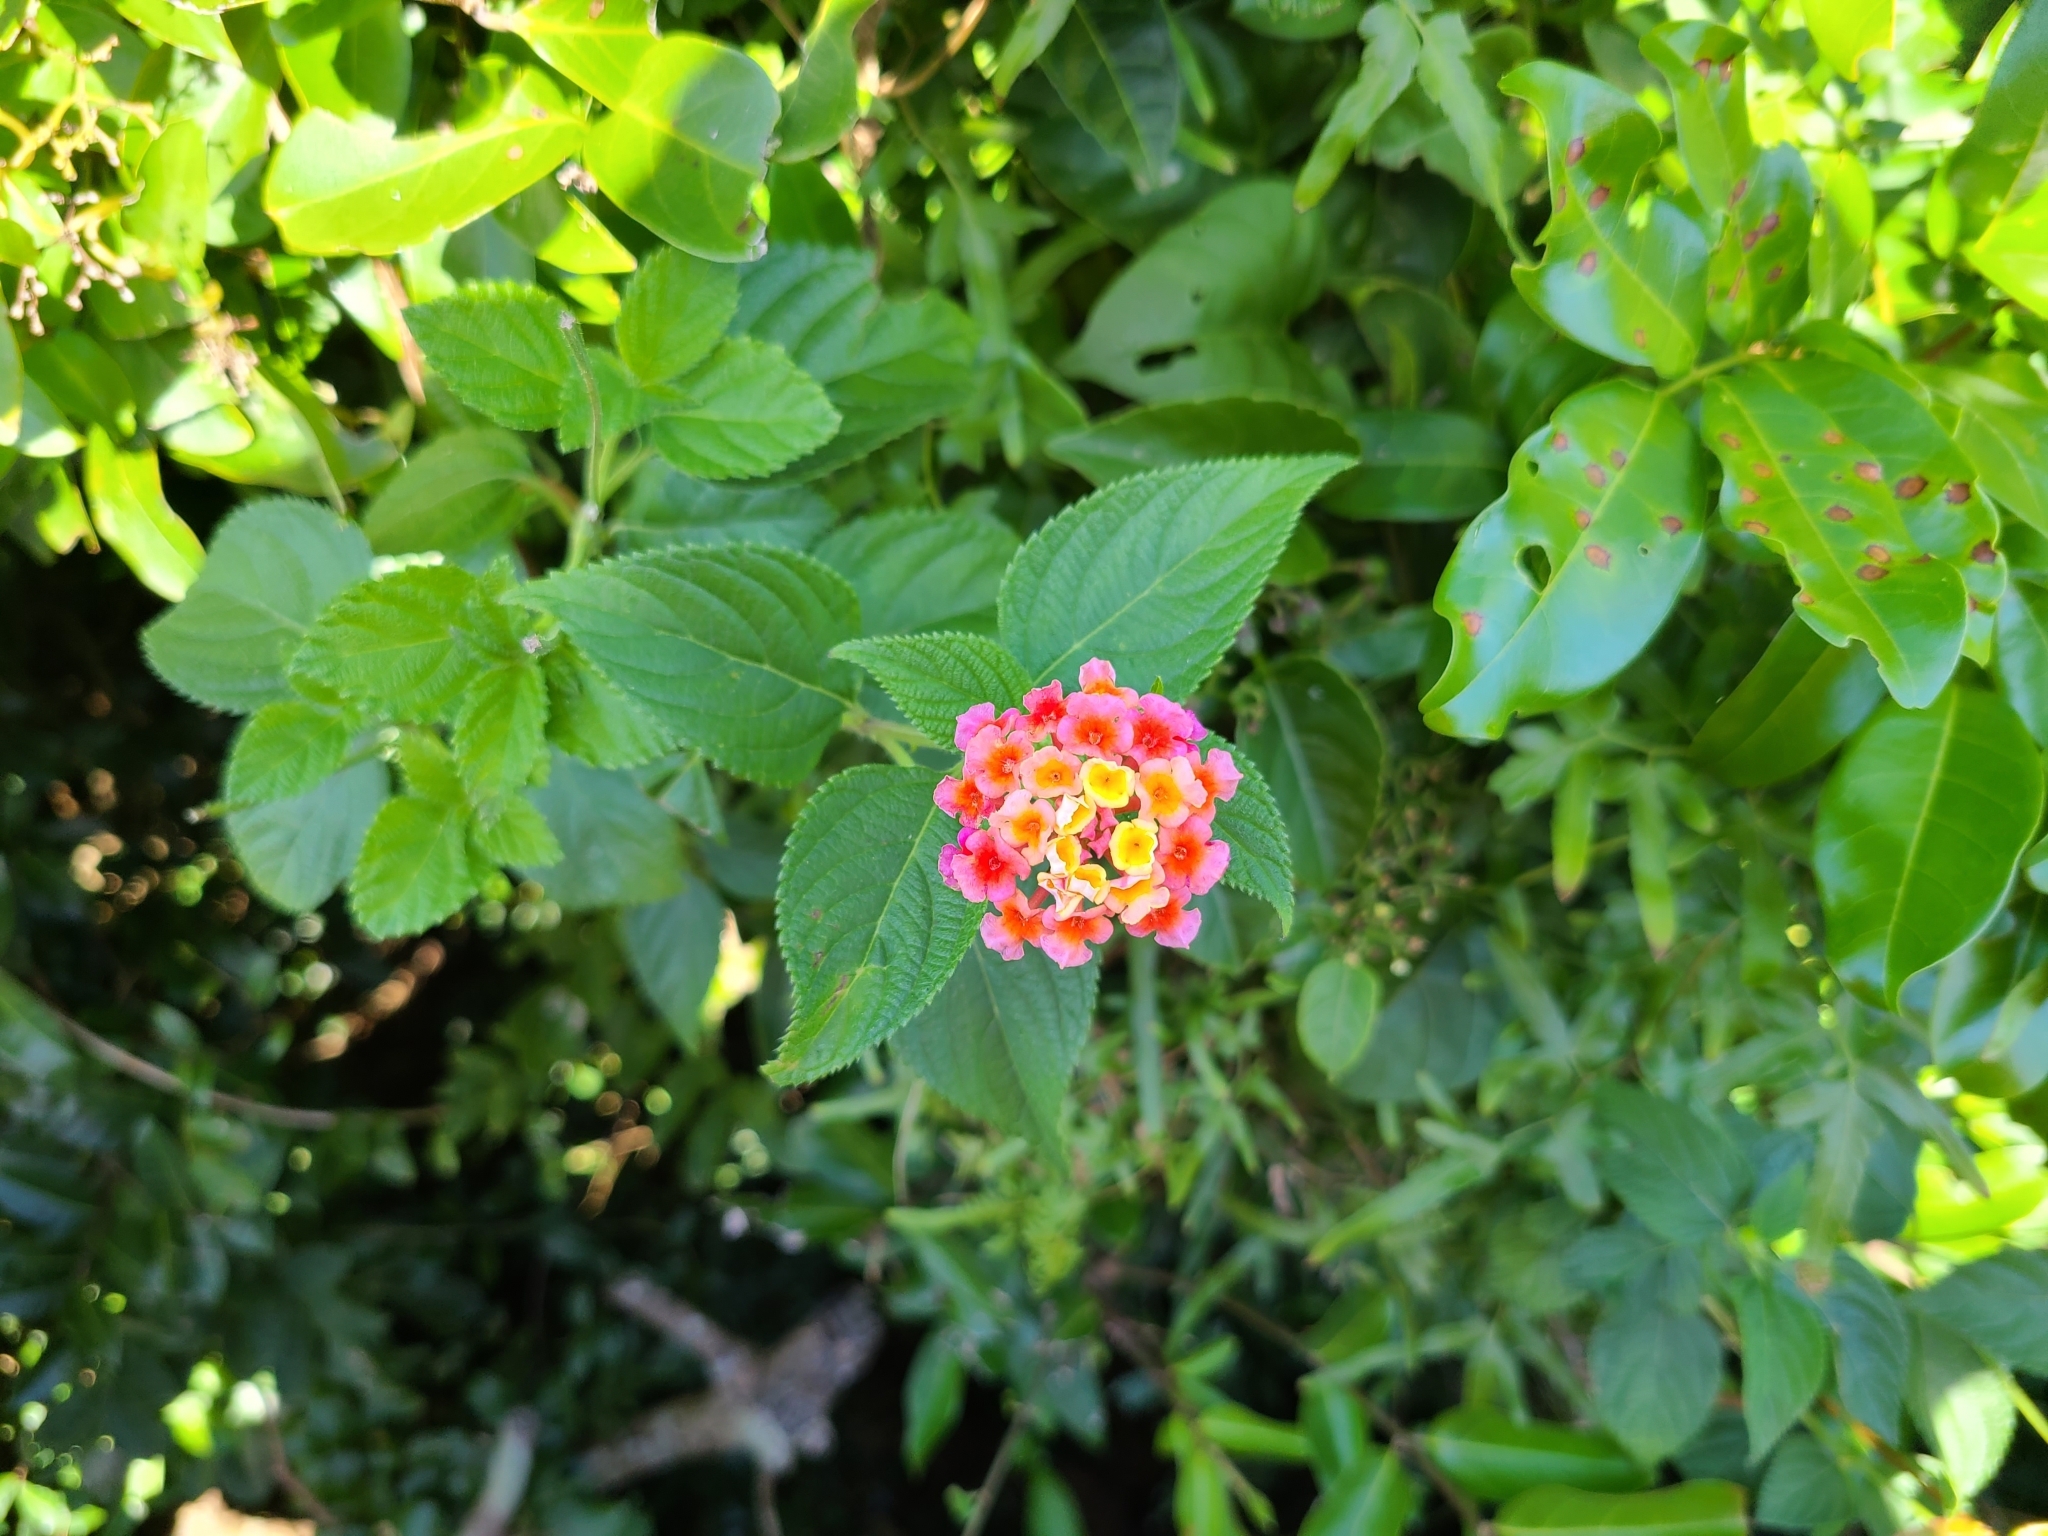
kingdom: Plantae
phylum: Tracheophyta
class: Magnoliopsida
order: Lamiales
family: Verbenaceae
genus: Lantana
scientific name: Lantana camara
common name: Lantana
